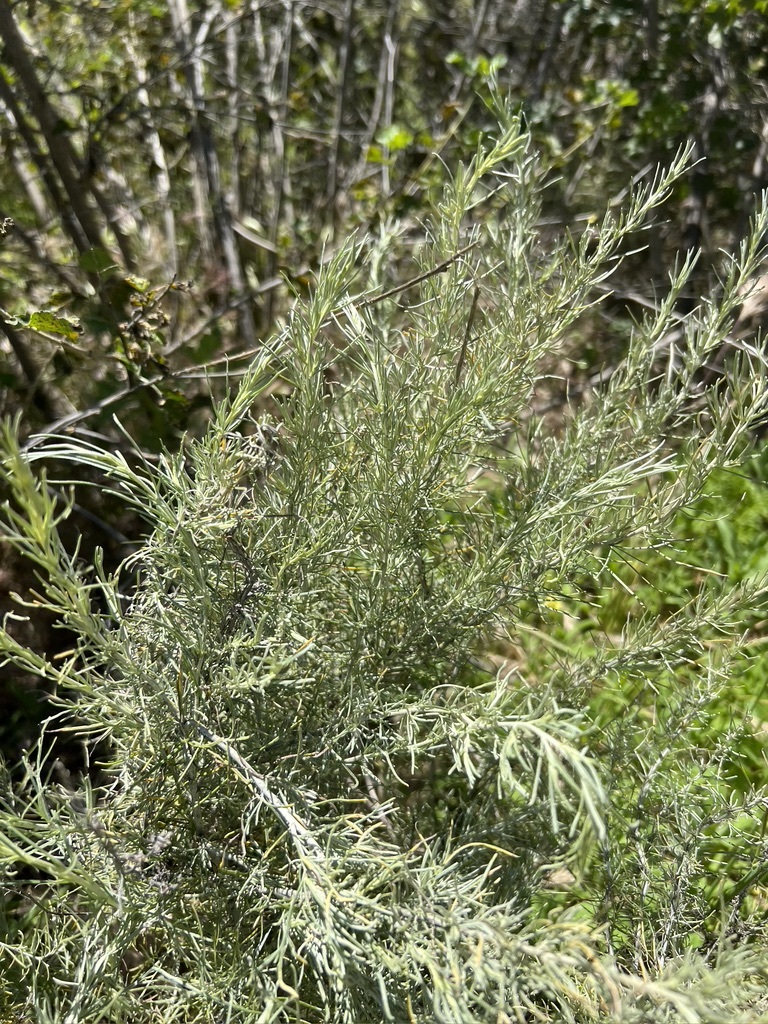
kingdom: Plantae
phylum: Tracheophyta
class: Magnoliopsida
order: Asterales
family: Asteraceae
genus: Artemisia
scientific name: Artemisia californica
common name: California sagebrush
